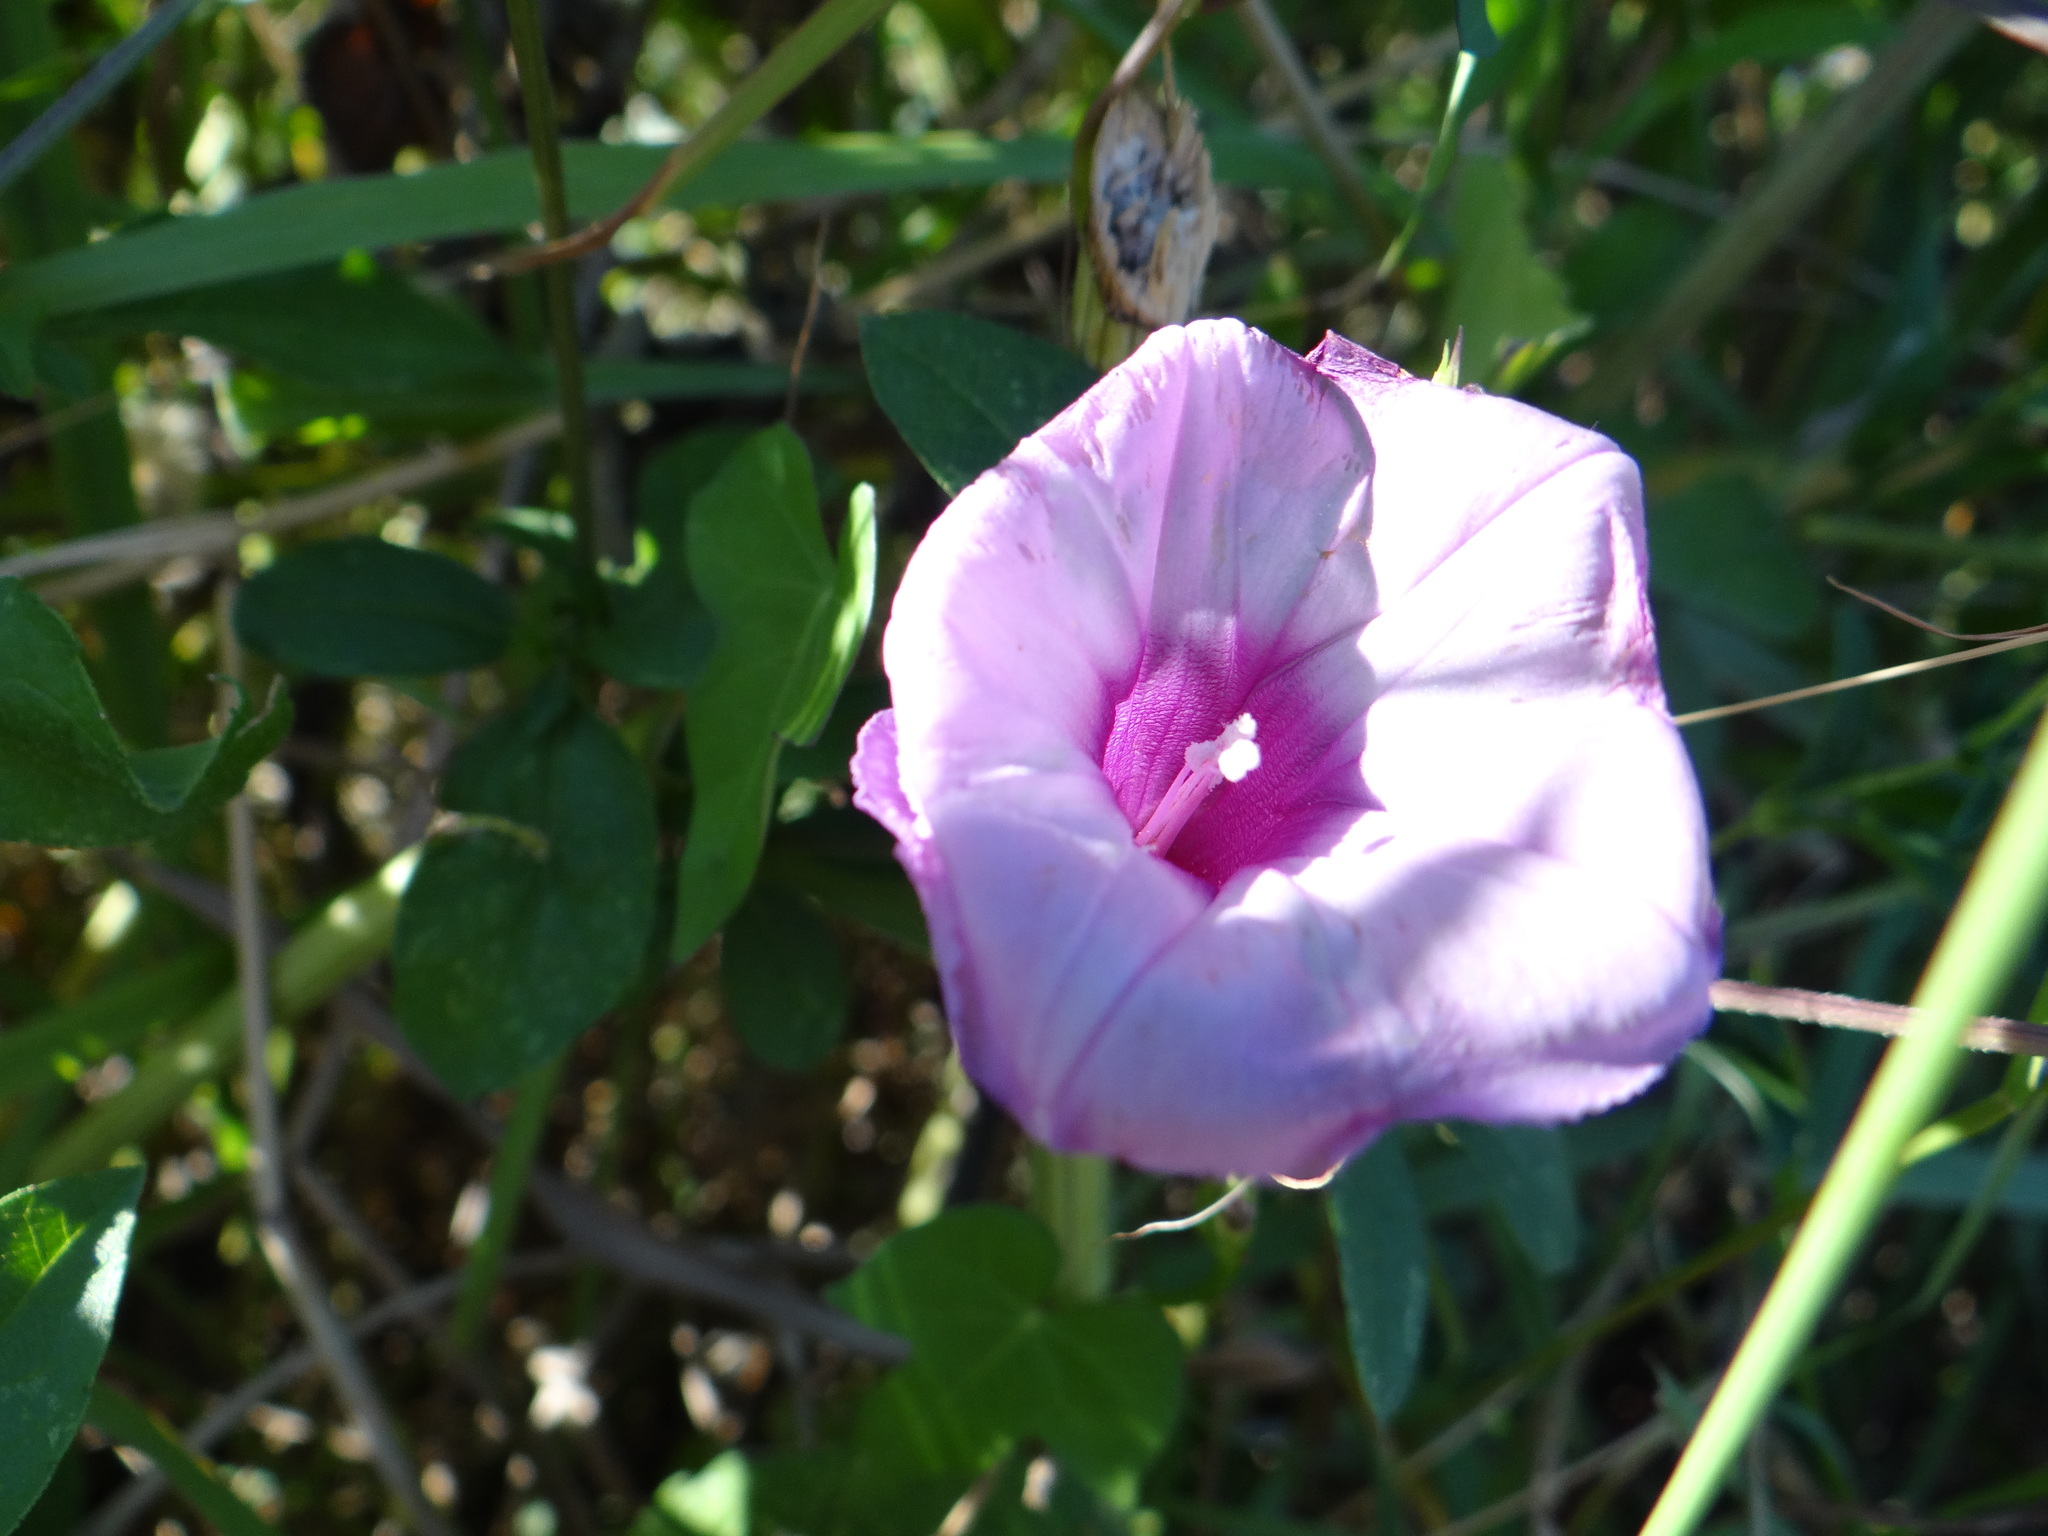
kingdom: Plantae
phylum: Tracheophyta
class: Magnoliopsida
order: Solanales
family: Convolvulaceae
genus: Ipomoea
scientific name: Ipomoea cordatotriloba
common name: Cotton morning glory
